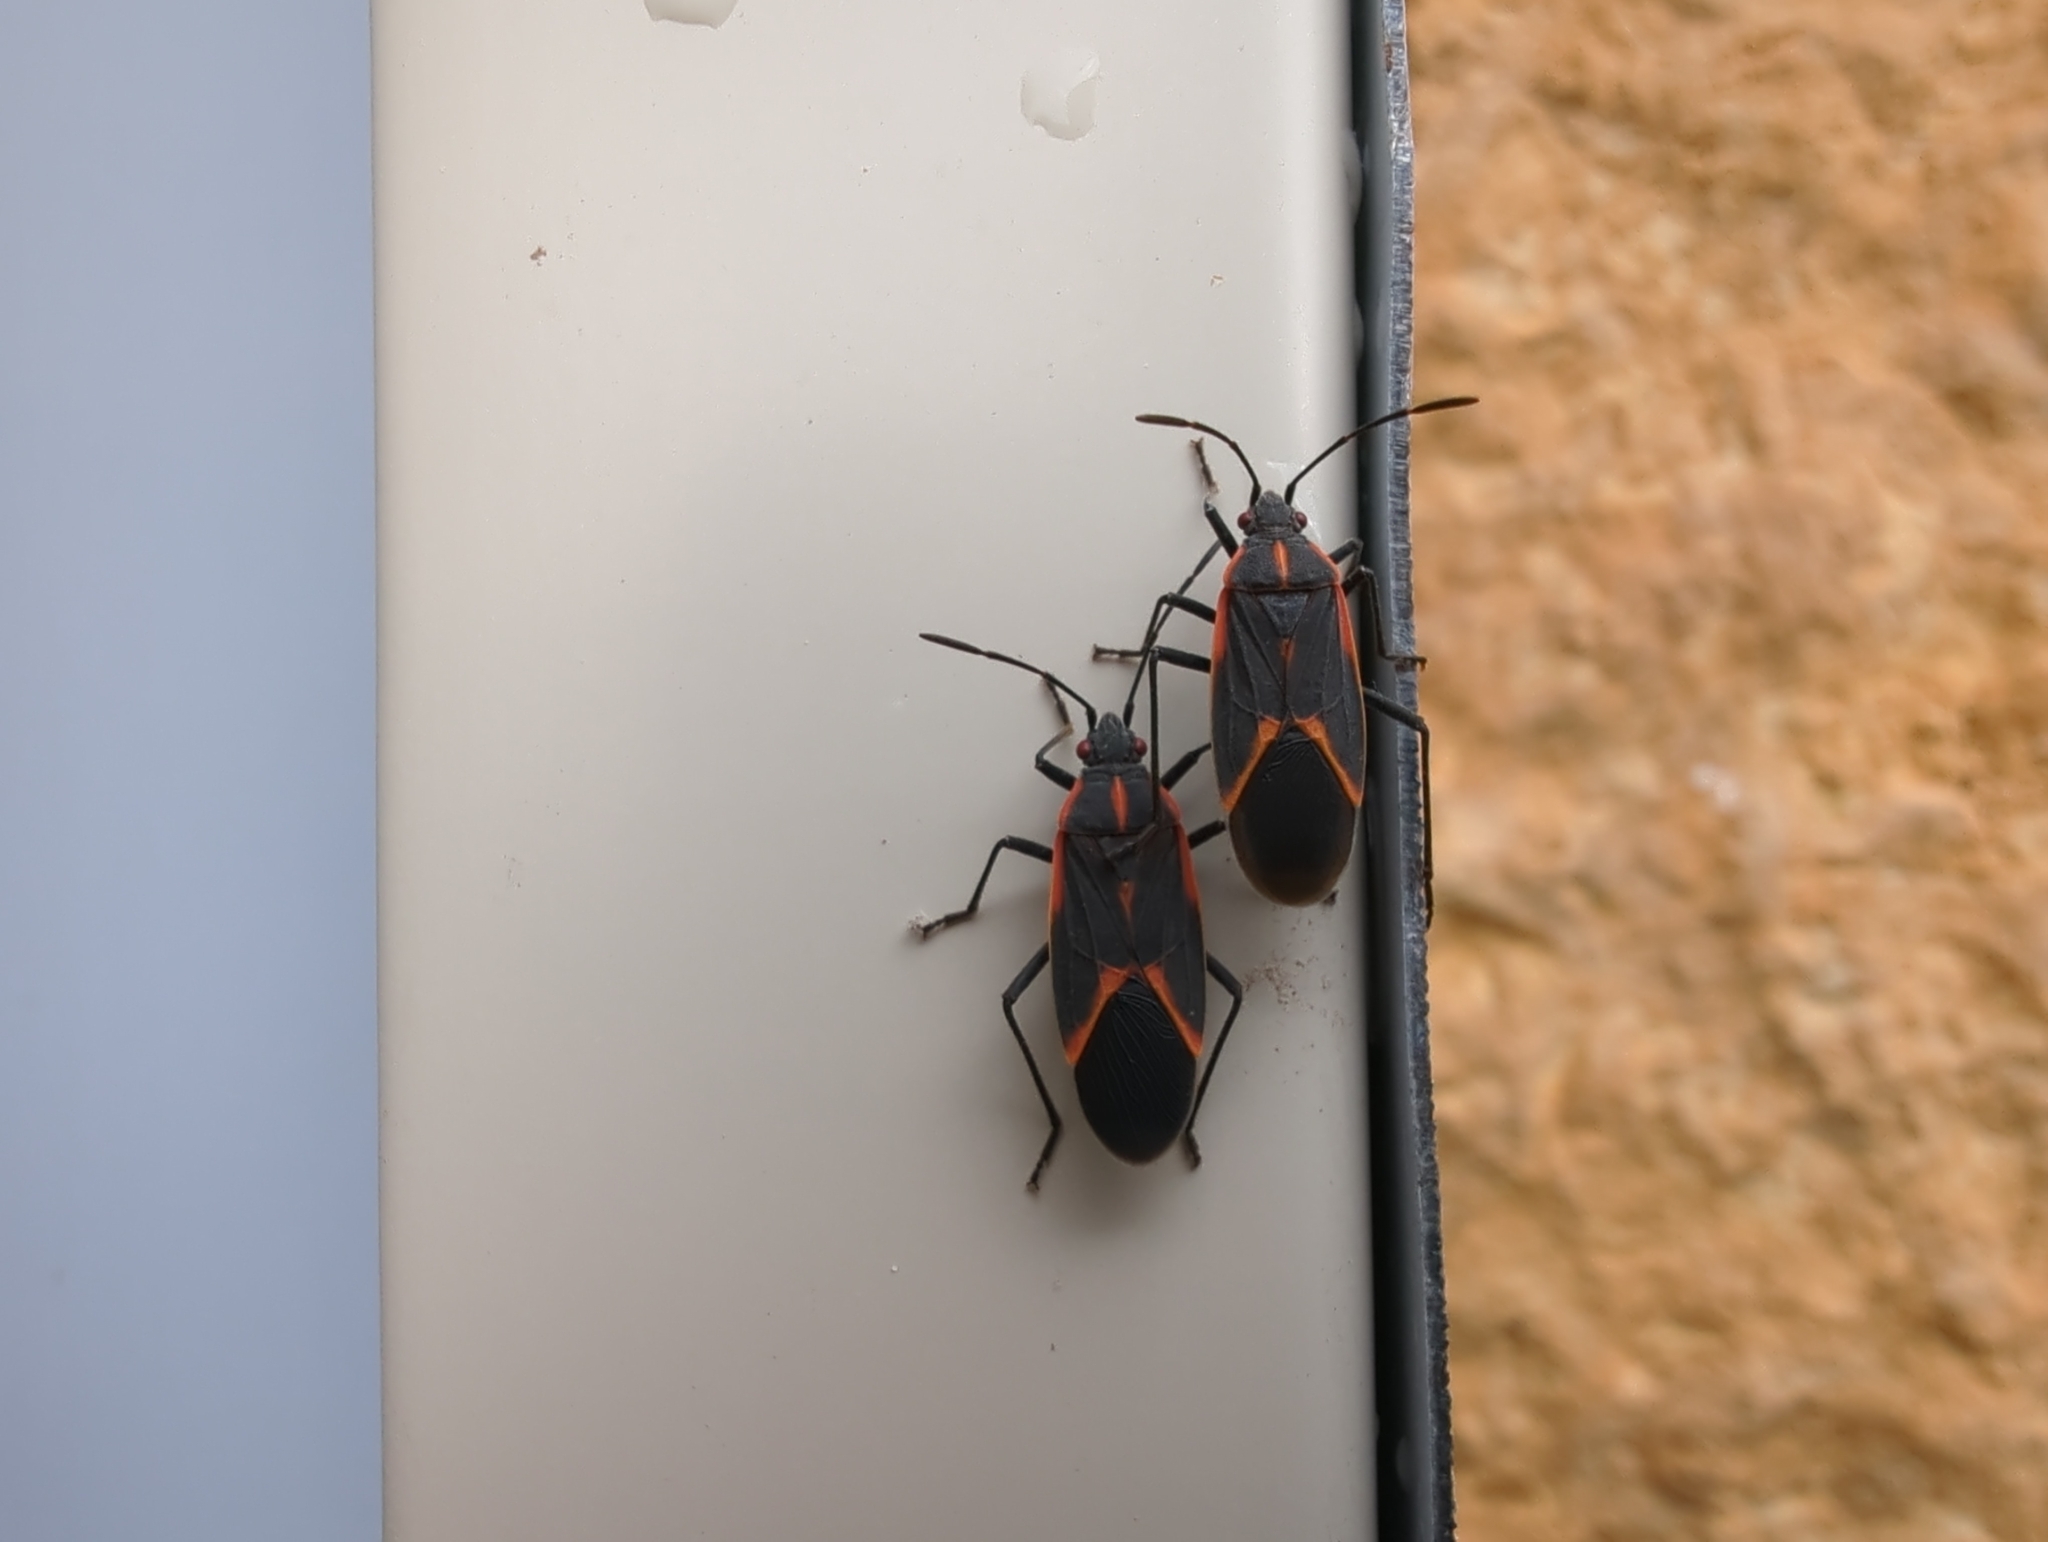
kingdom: Animalia
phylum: Arthropoda
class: Insecta
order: Hemiptera
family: Rhopalidae
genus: Boisea
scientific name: Boisea trivittata
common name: Boxelder bug
